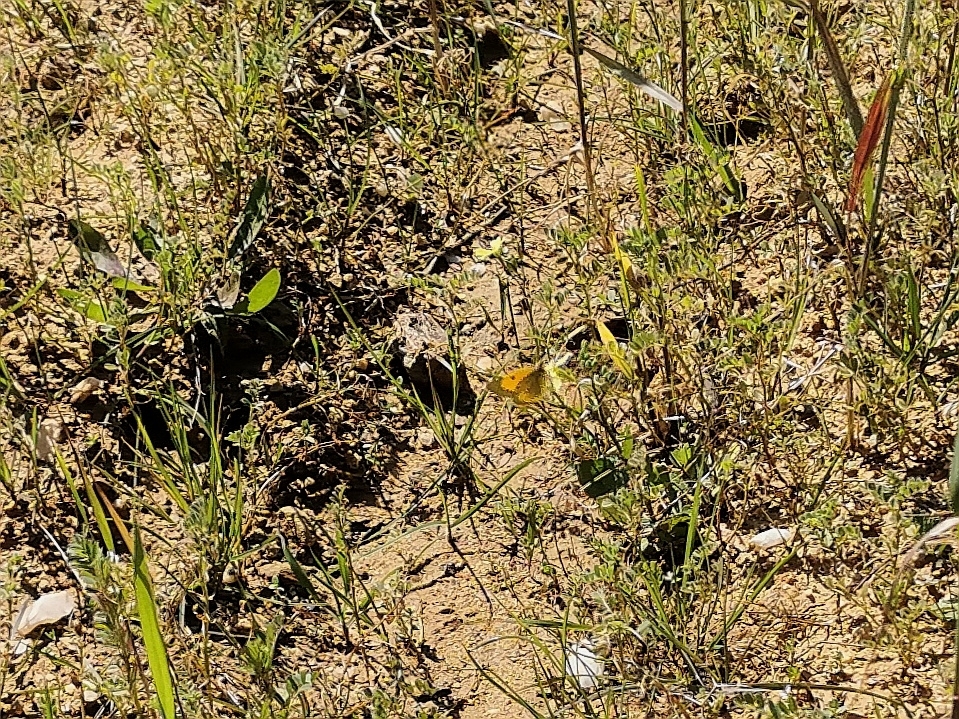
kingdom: Animalia
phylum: Arthropoda
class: Insecta
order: Lepidoptera
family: Pieridae
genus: Colias
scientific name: Colias croceus
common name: Clouded yellow
